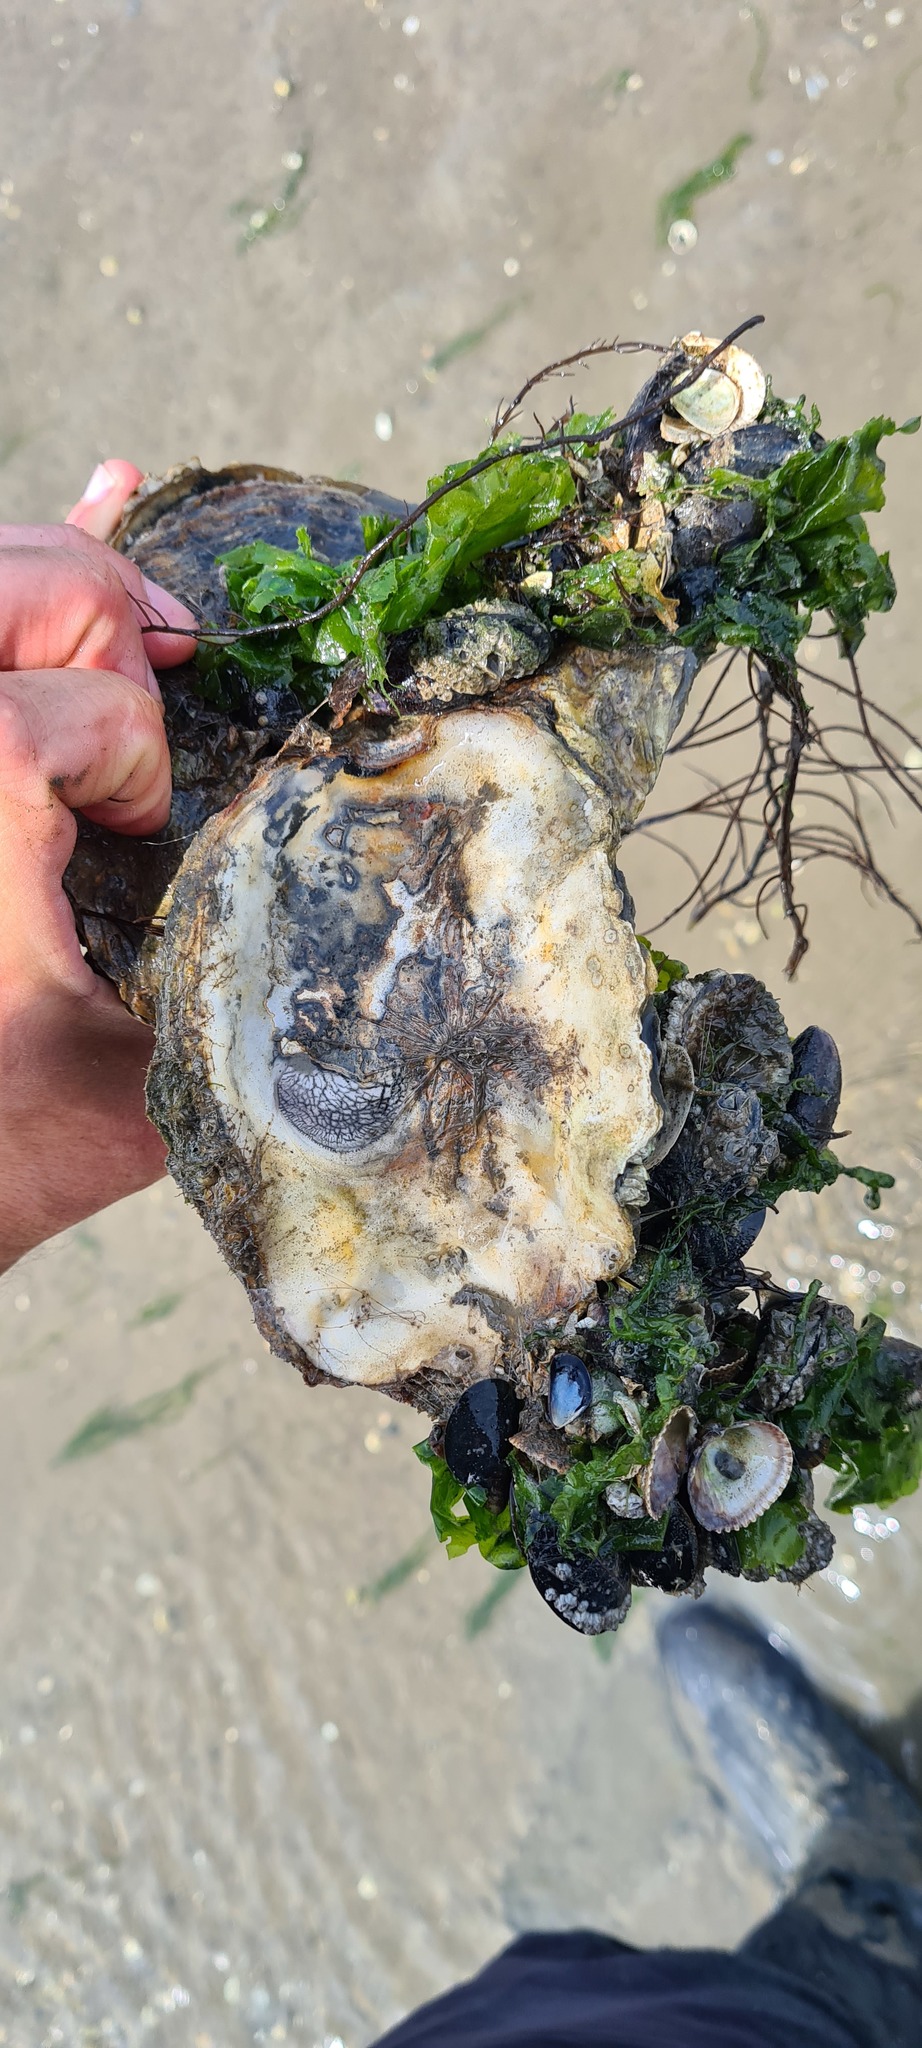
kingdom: Animalia
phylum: Mollusca
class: Bivalvia
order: Ostreida
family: Ostreidae
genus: Magallana
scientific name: Magallana gigas
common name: Pacific oyster
